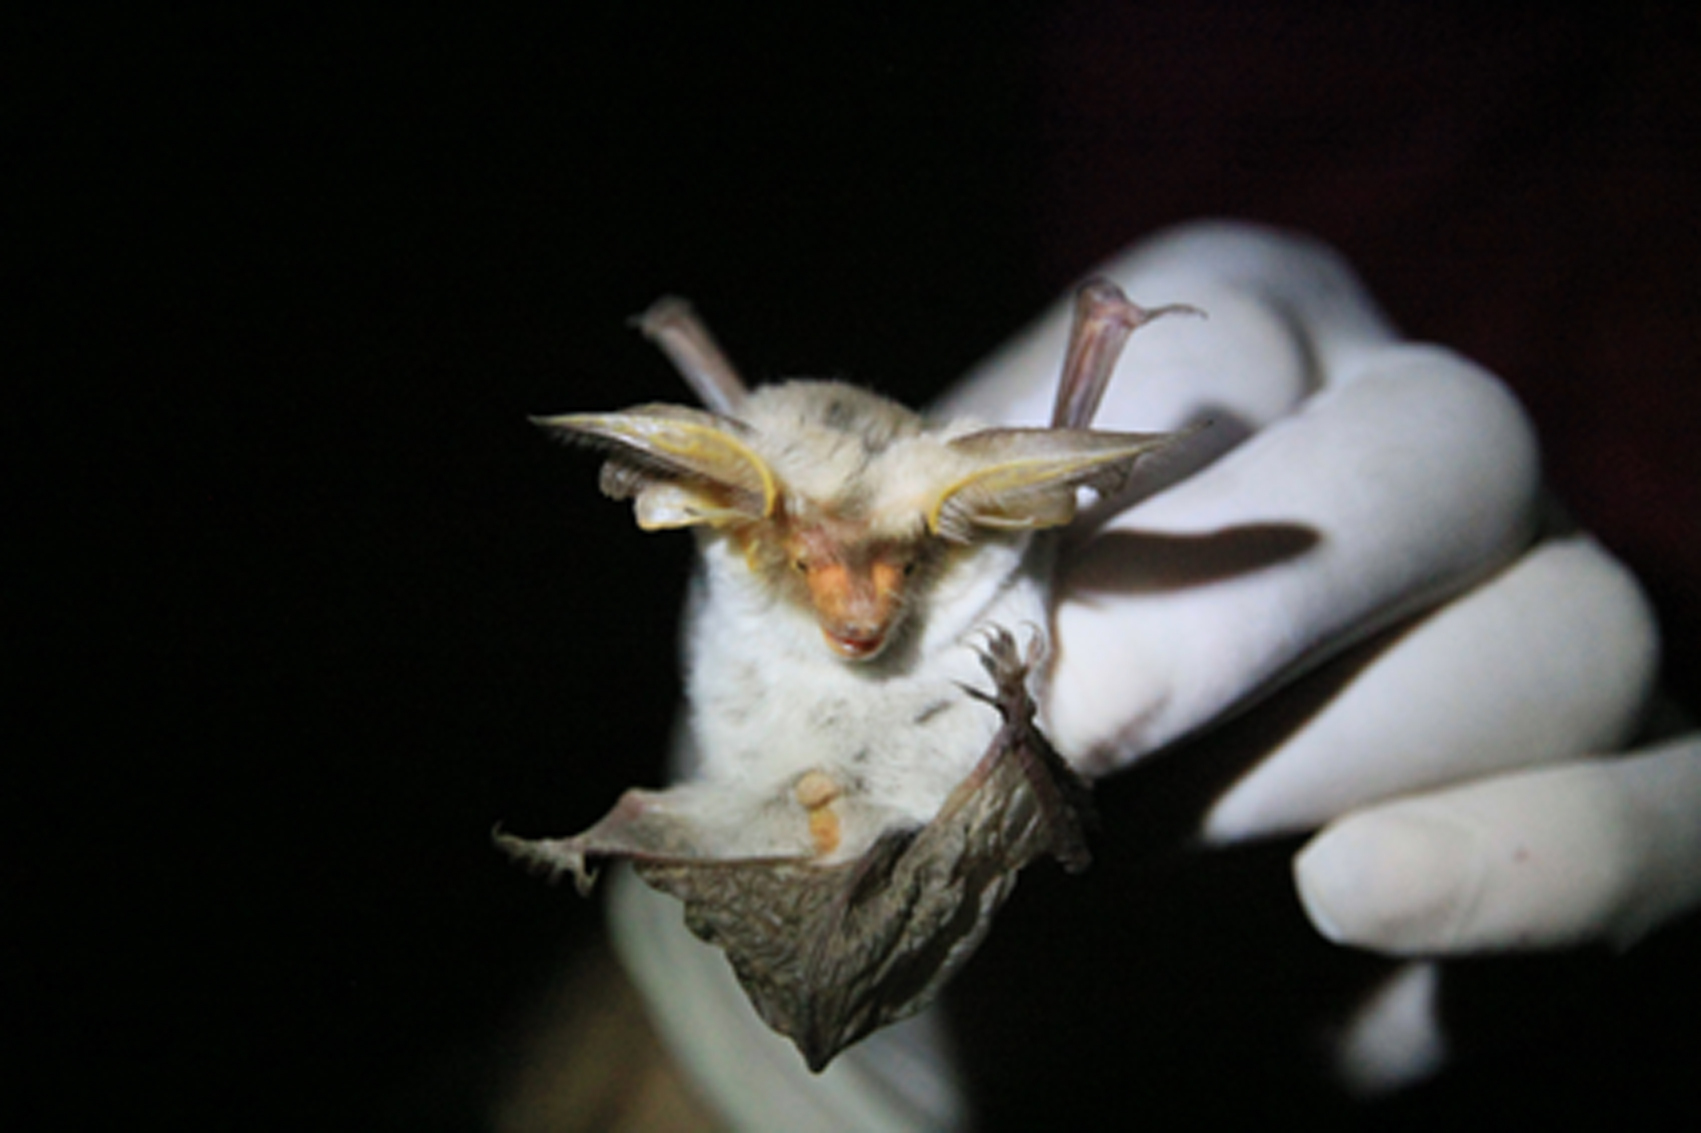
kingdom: Animalia
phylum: Chordata
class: Mammalia
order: Chiroptera
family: Vespertilionidae
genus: Histiotus
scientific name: Histiotus montanus
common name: Small big-eared brown bat
